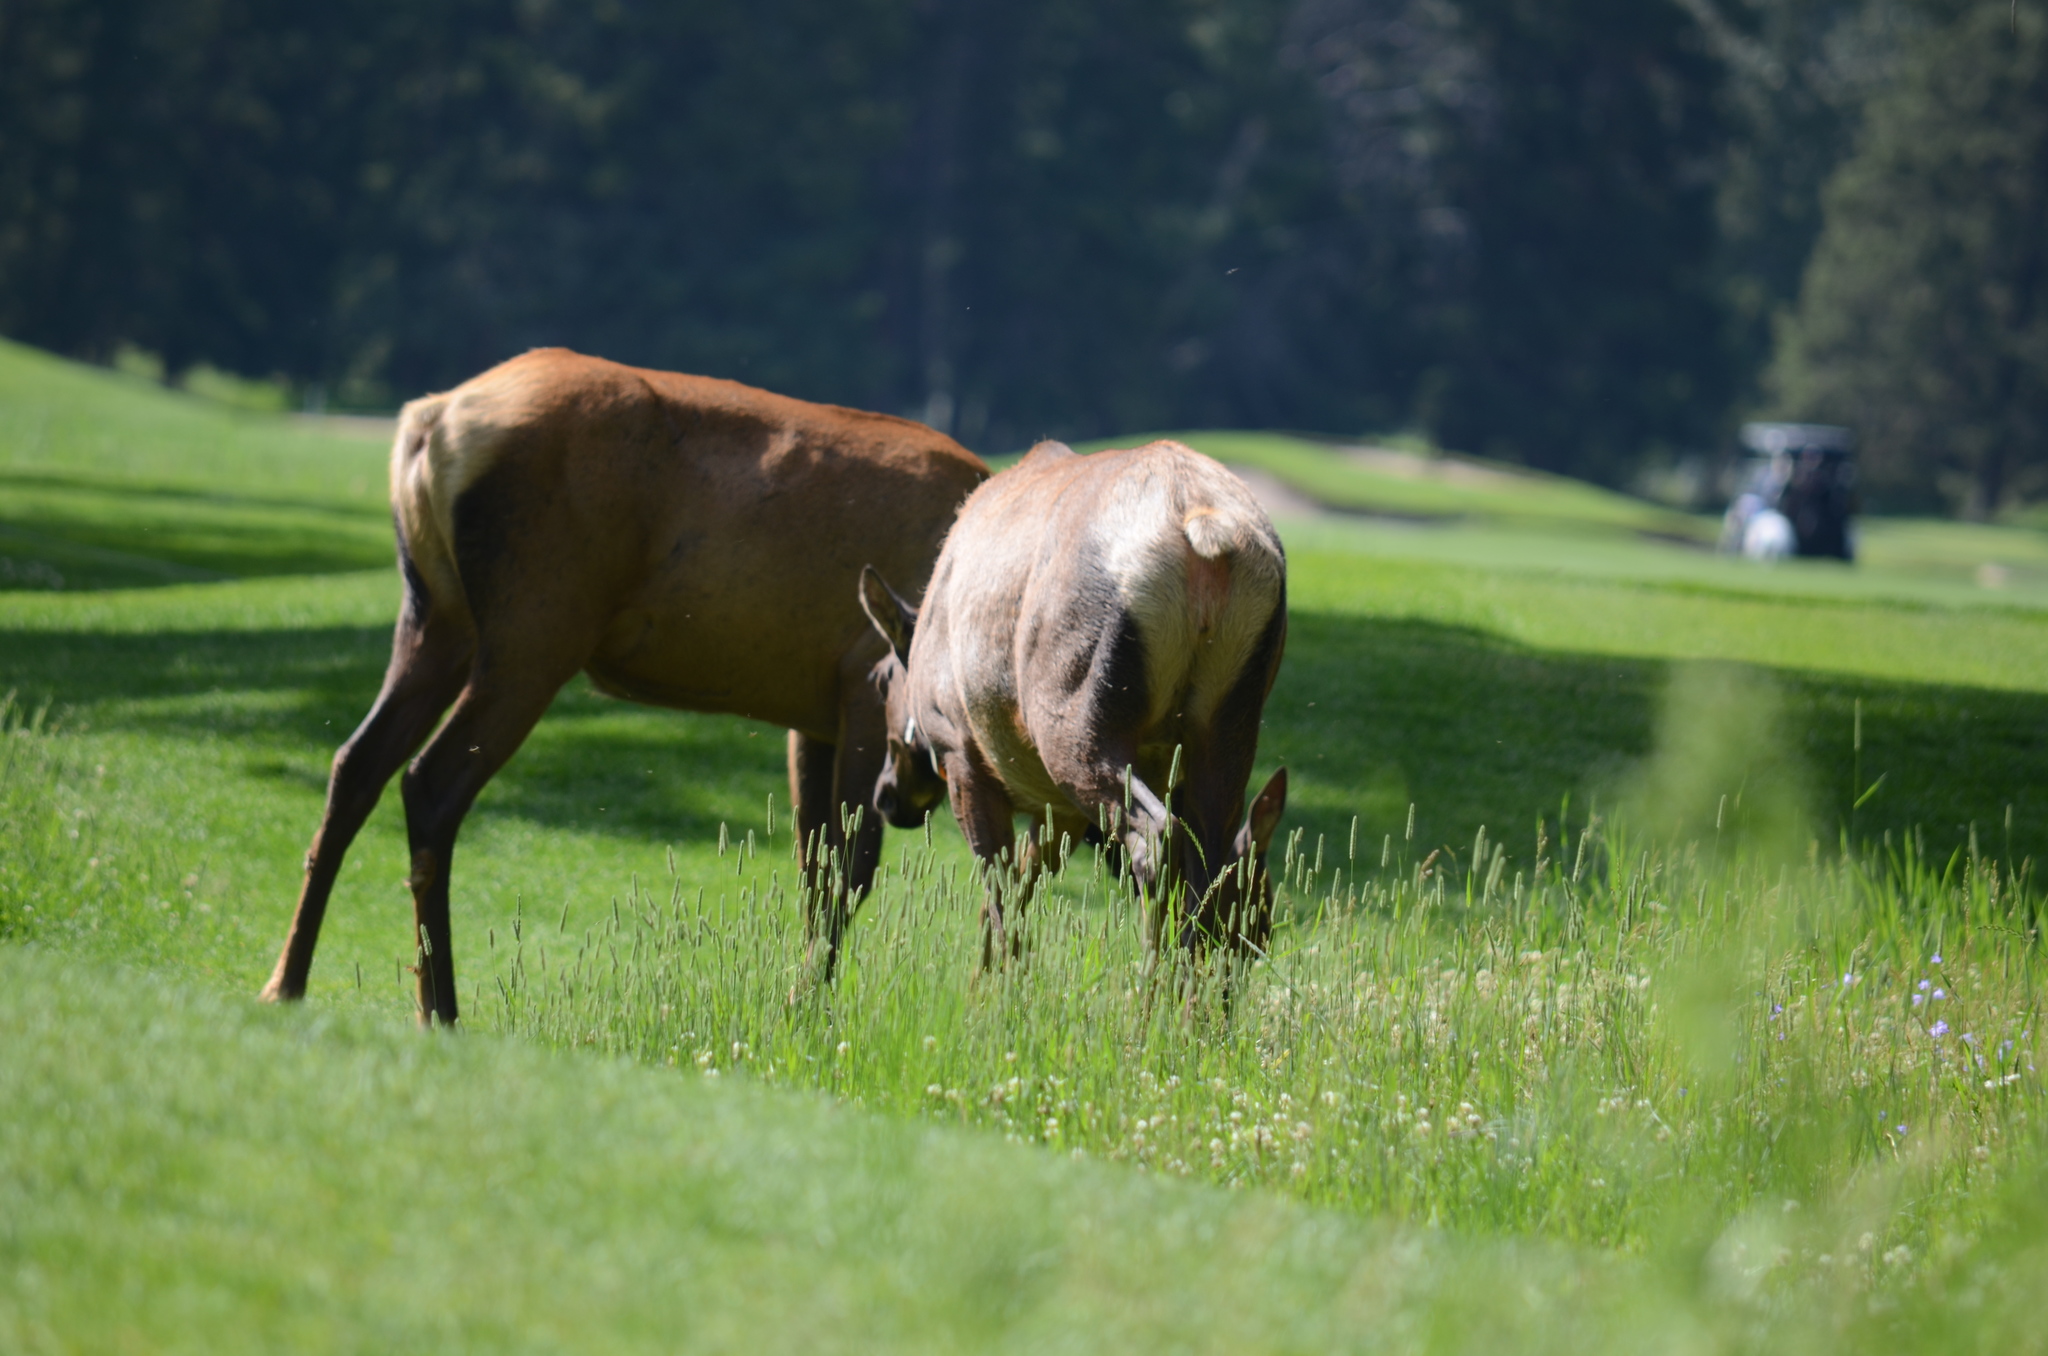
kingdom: Animalia
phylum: Chordata
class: Mammalia
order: Artiodactyla
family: Cervidae
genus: Cervus
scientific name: Cervus elaphus
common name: Red deer
